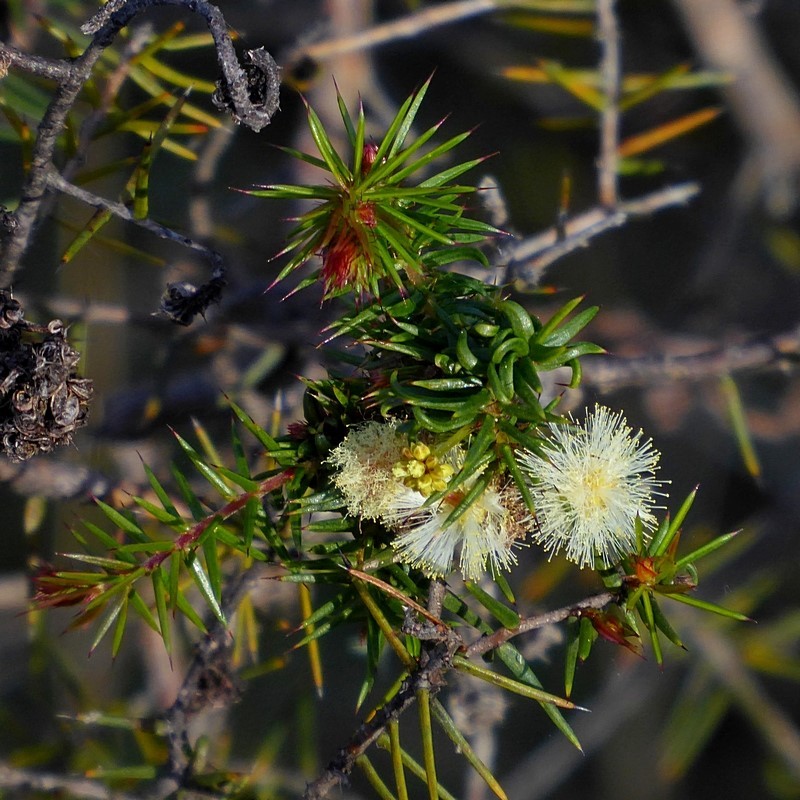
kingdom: Plantae
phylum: Tracheophyta
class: Magnoliopsida
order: Fabales
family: Fabaceae
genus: Acacia
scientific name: Acacia ulicifolia
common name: Juniper wattle
